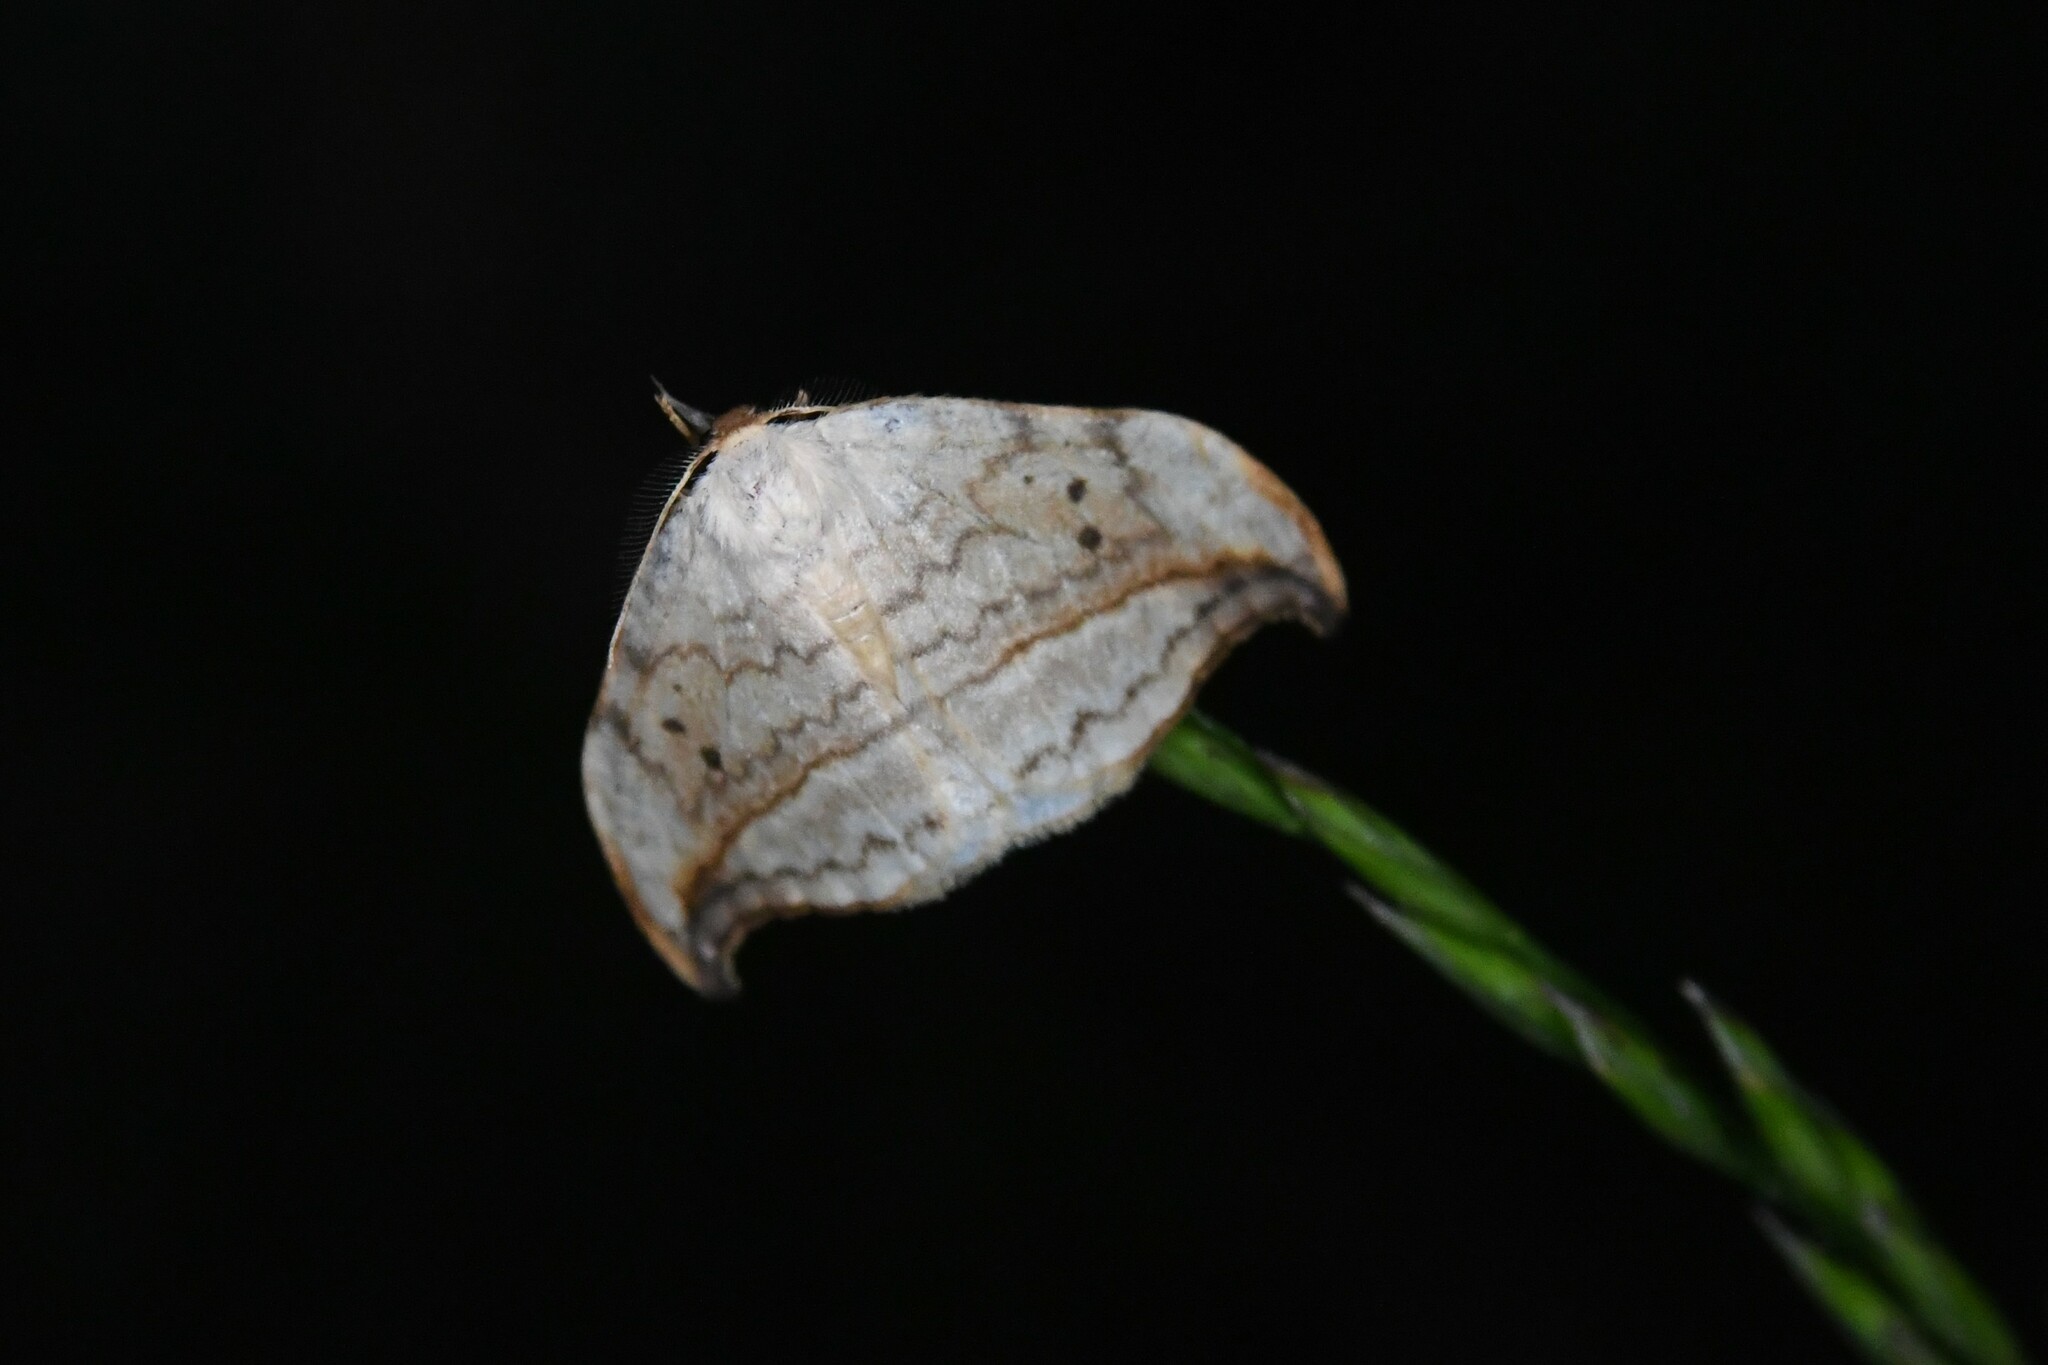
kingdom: Animalia
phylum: Arthropoda
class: Insecta
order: Lepidoptera
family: Drepanidae
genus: Drepana
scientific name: Drepana arcuata
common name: Arched hooktip moth
